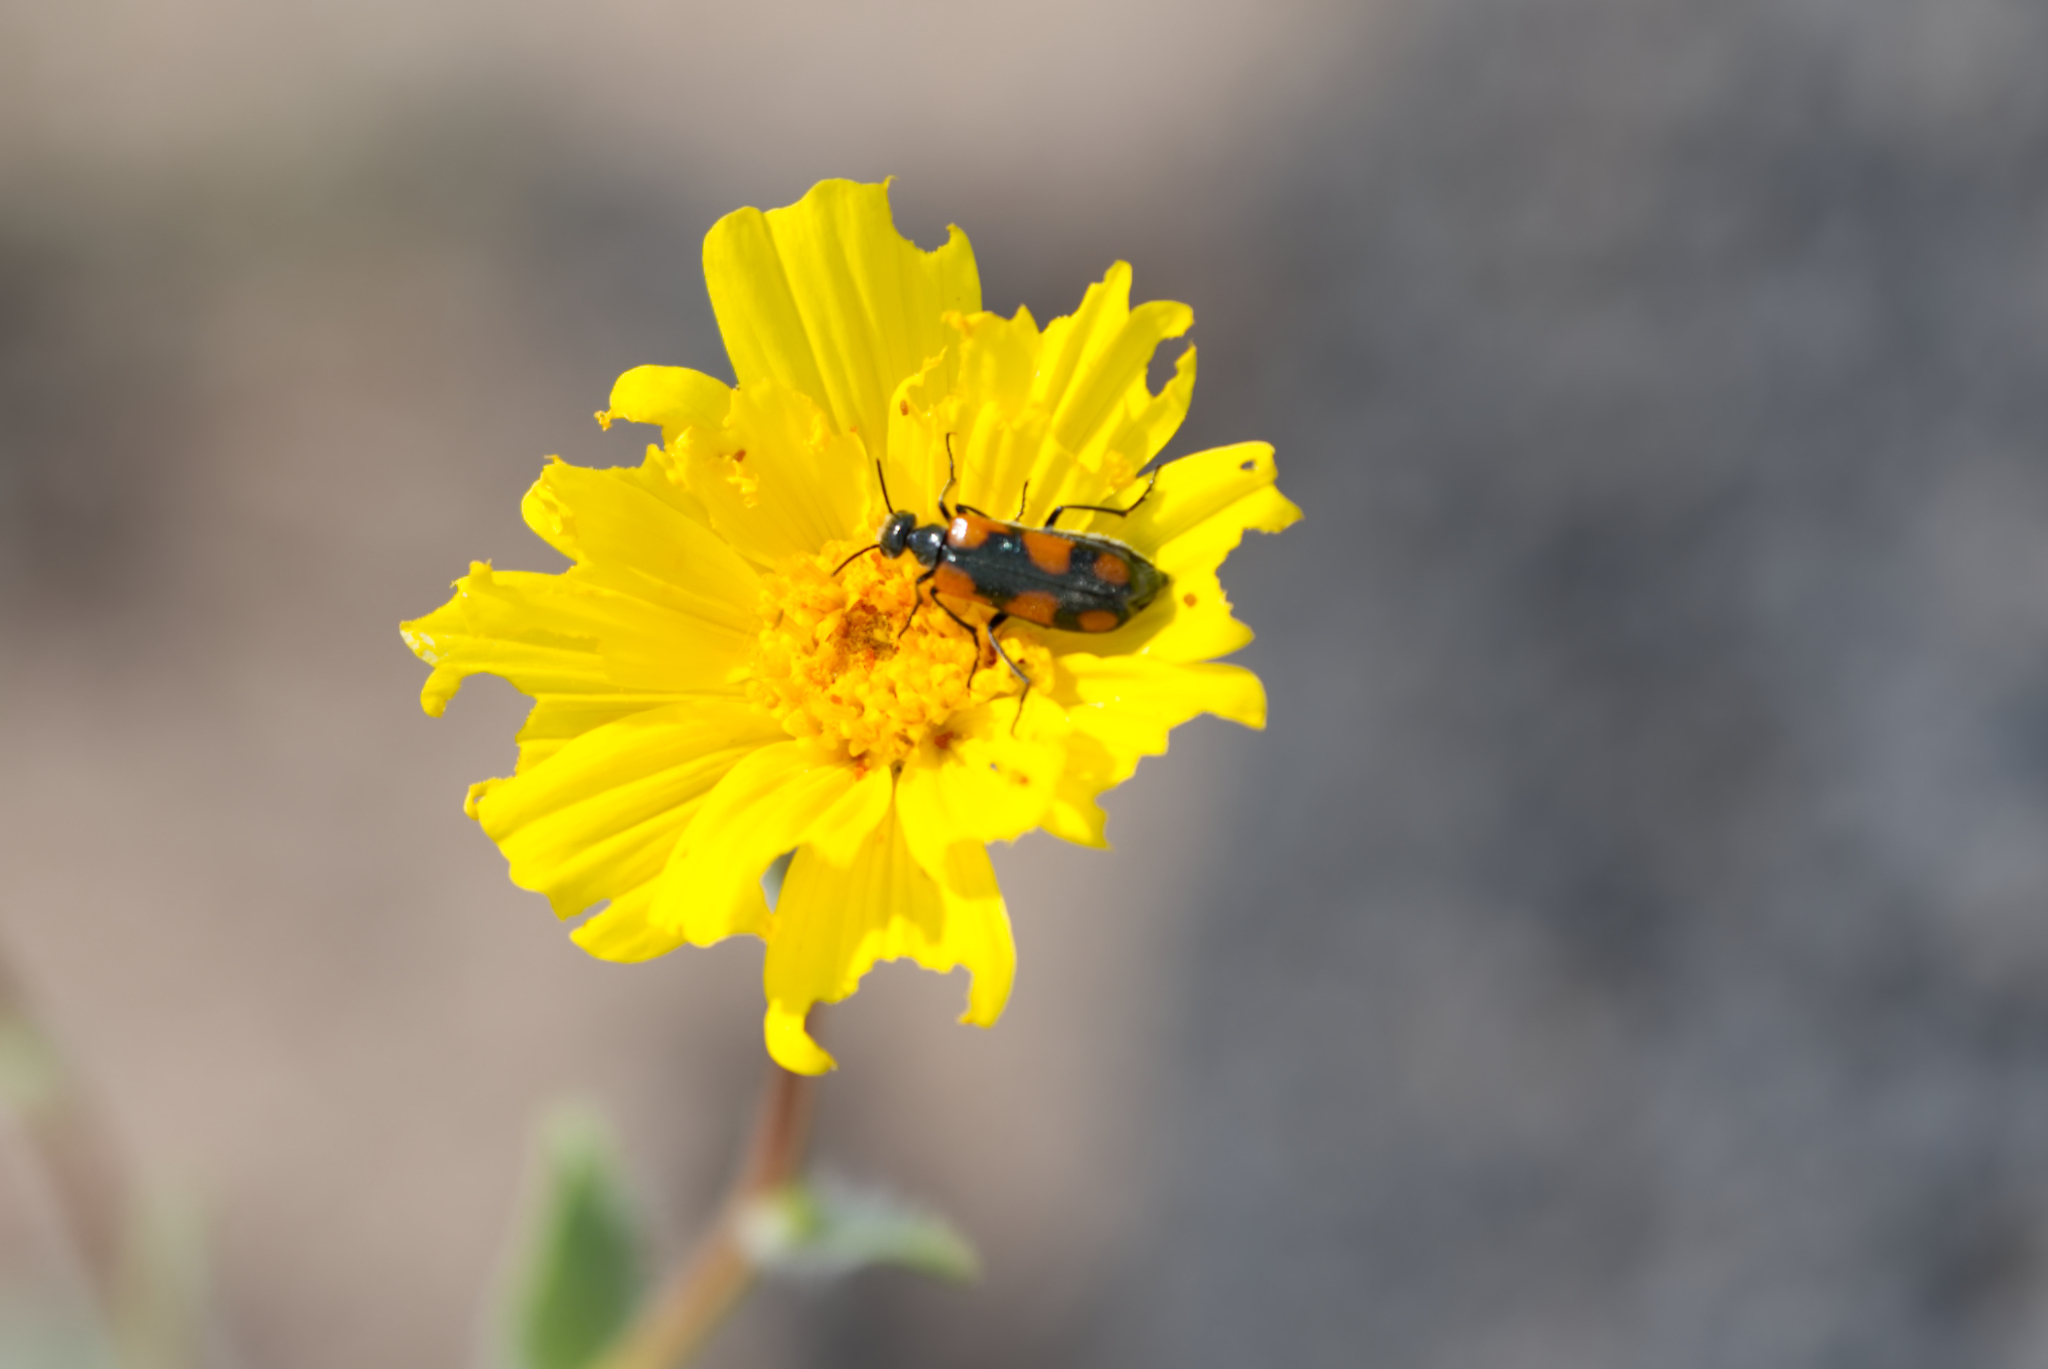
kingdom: Animalia
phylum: Arthropoda
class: Insecta
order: Coleoptera
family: Meloidae
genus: Eupompha
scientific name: Eupompha elegans
